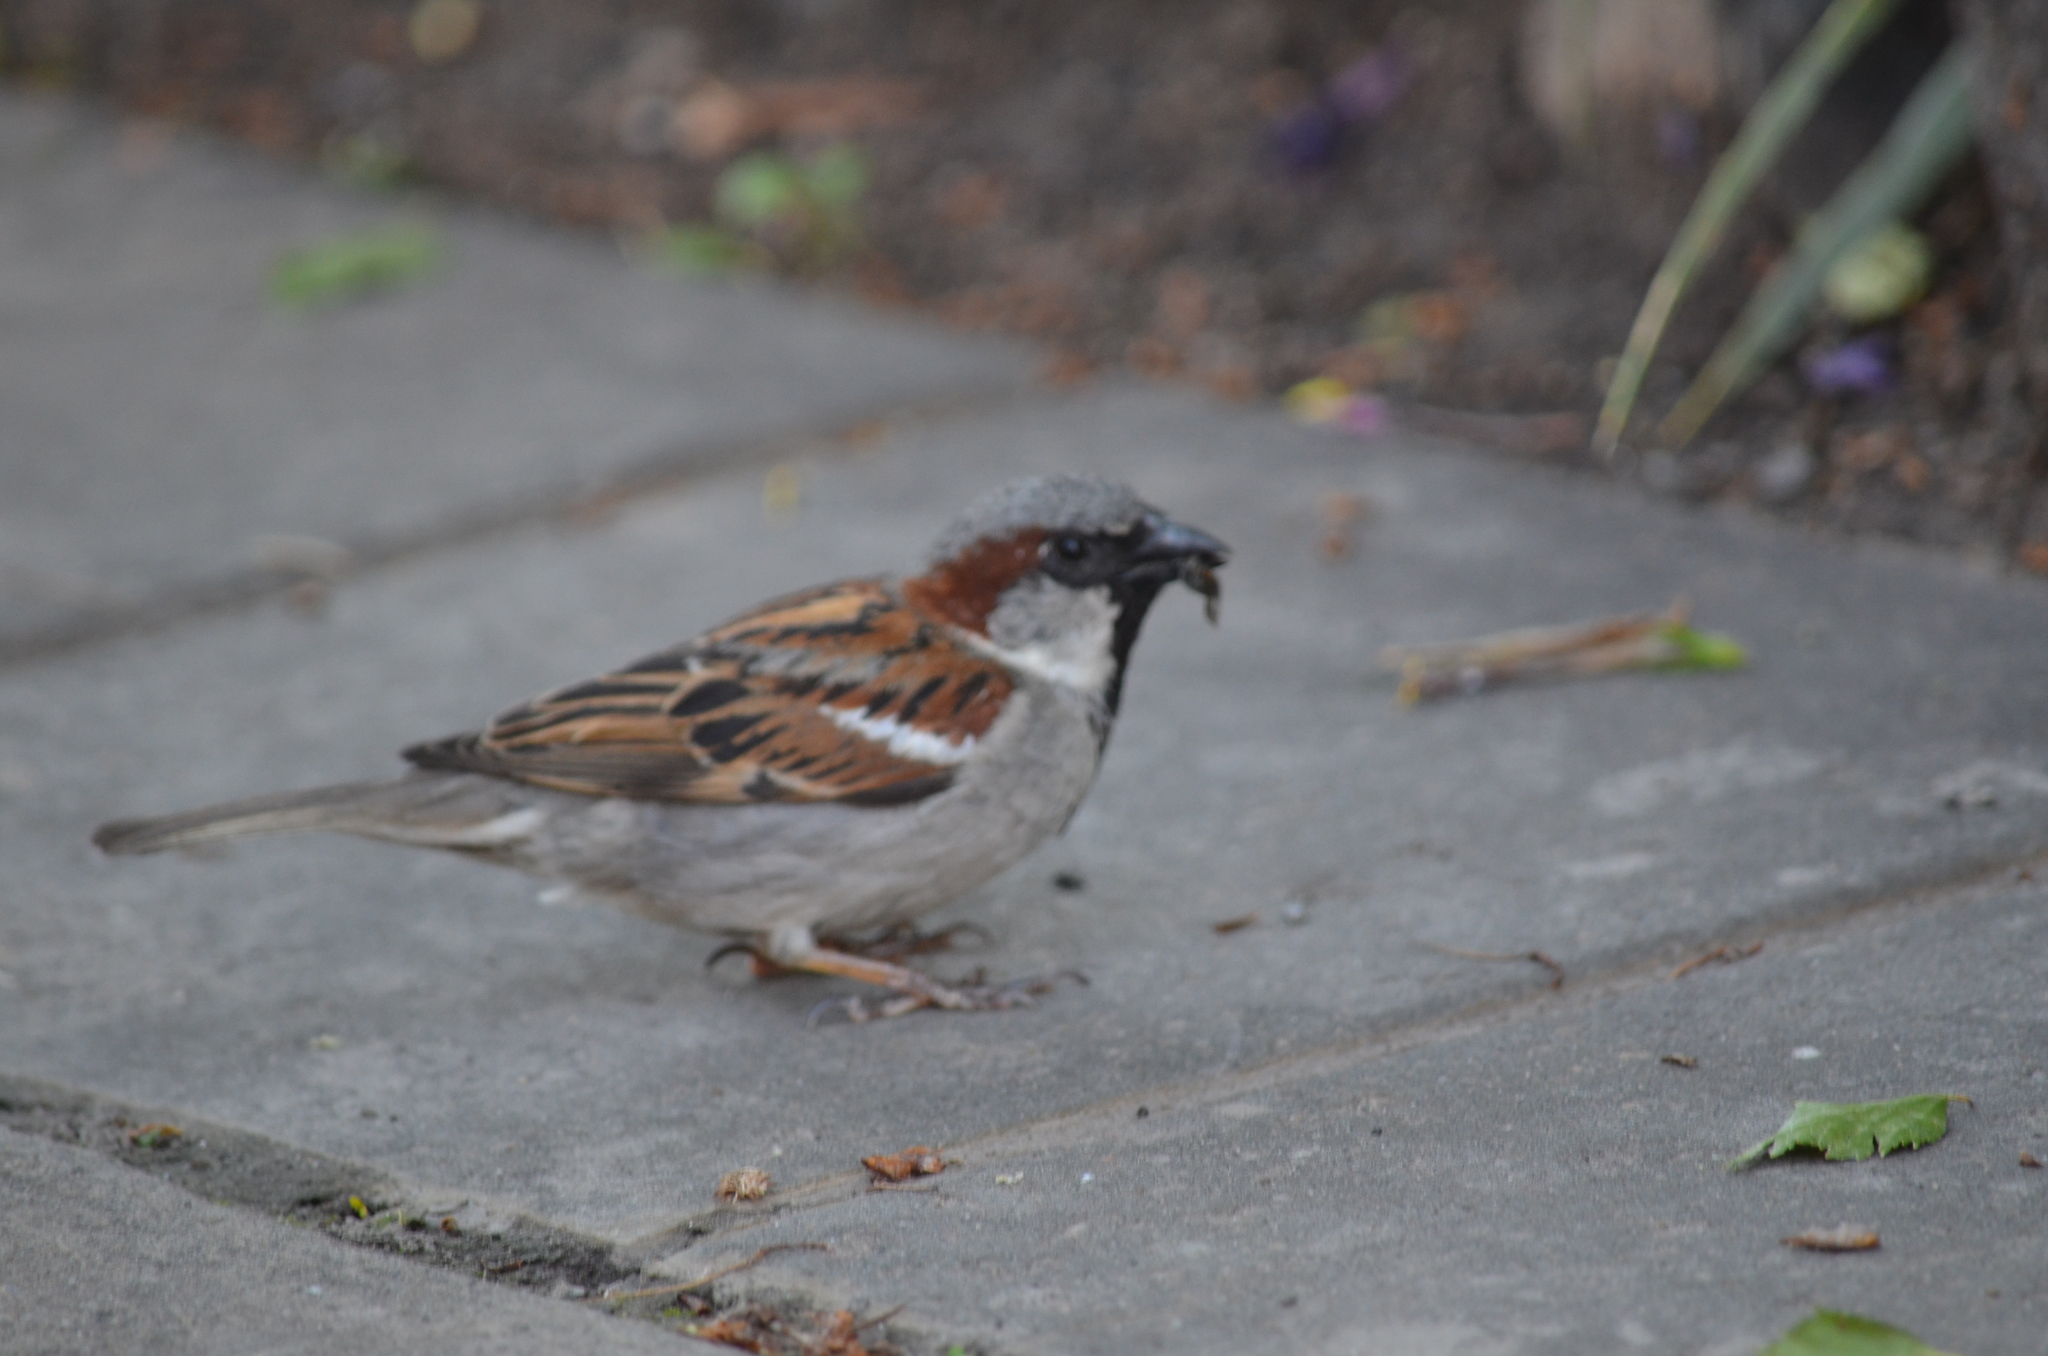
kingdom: Animalia
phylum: Chordata
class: Aves
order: Passeriformes
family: Passeridae
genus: Passer
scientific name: Passer domesticus
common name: House sparrow
